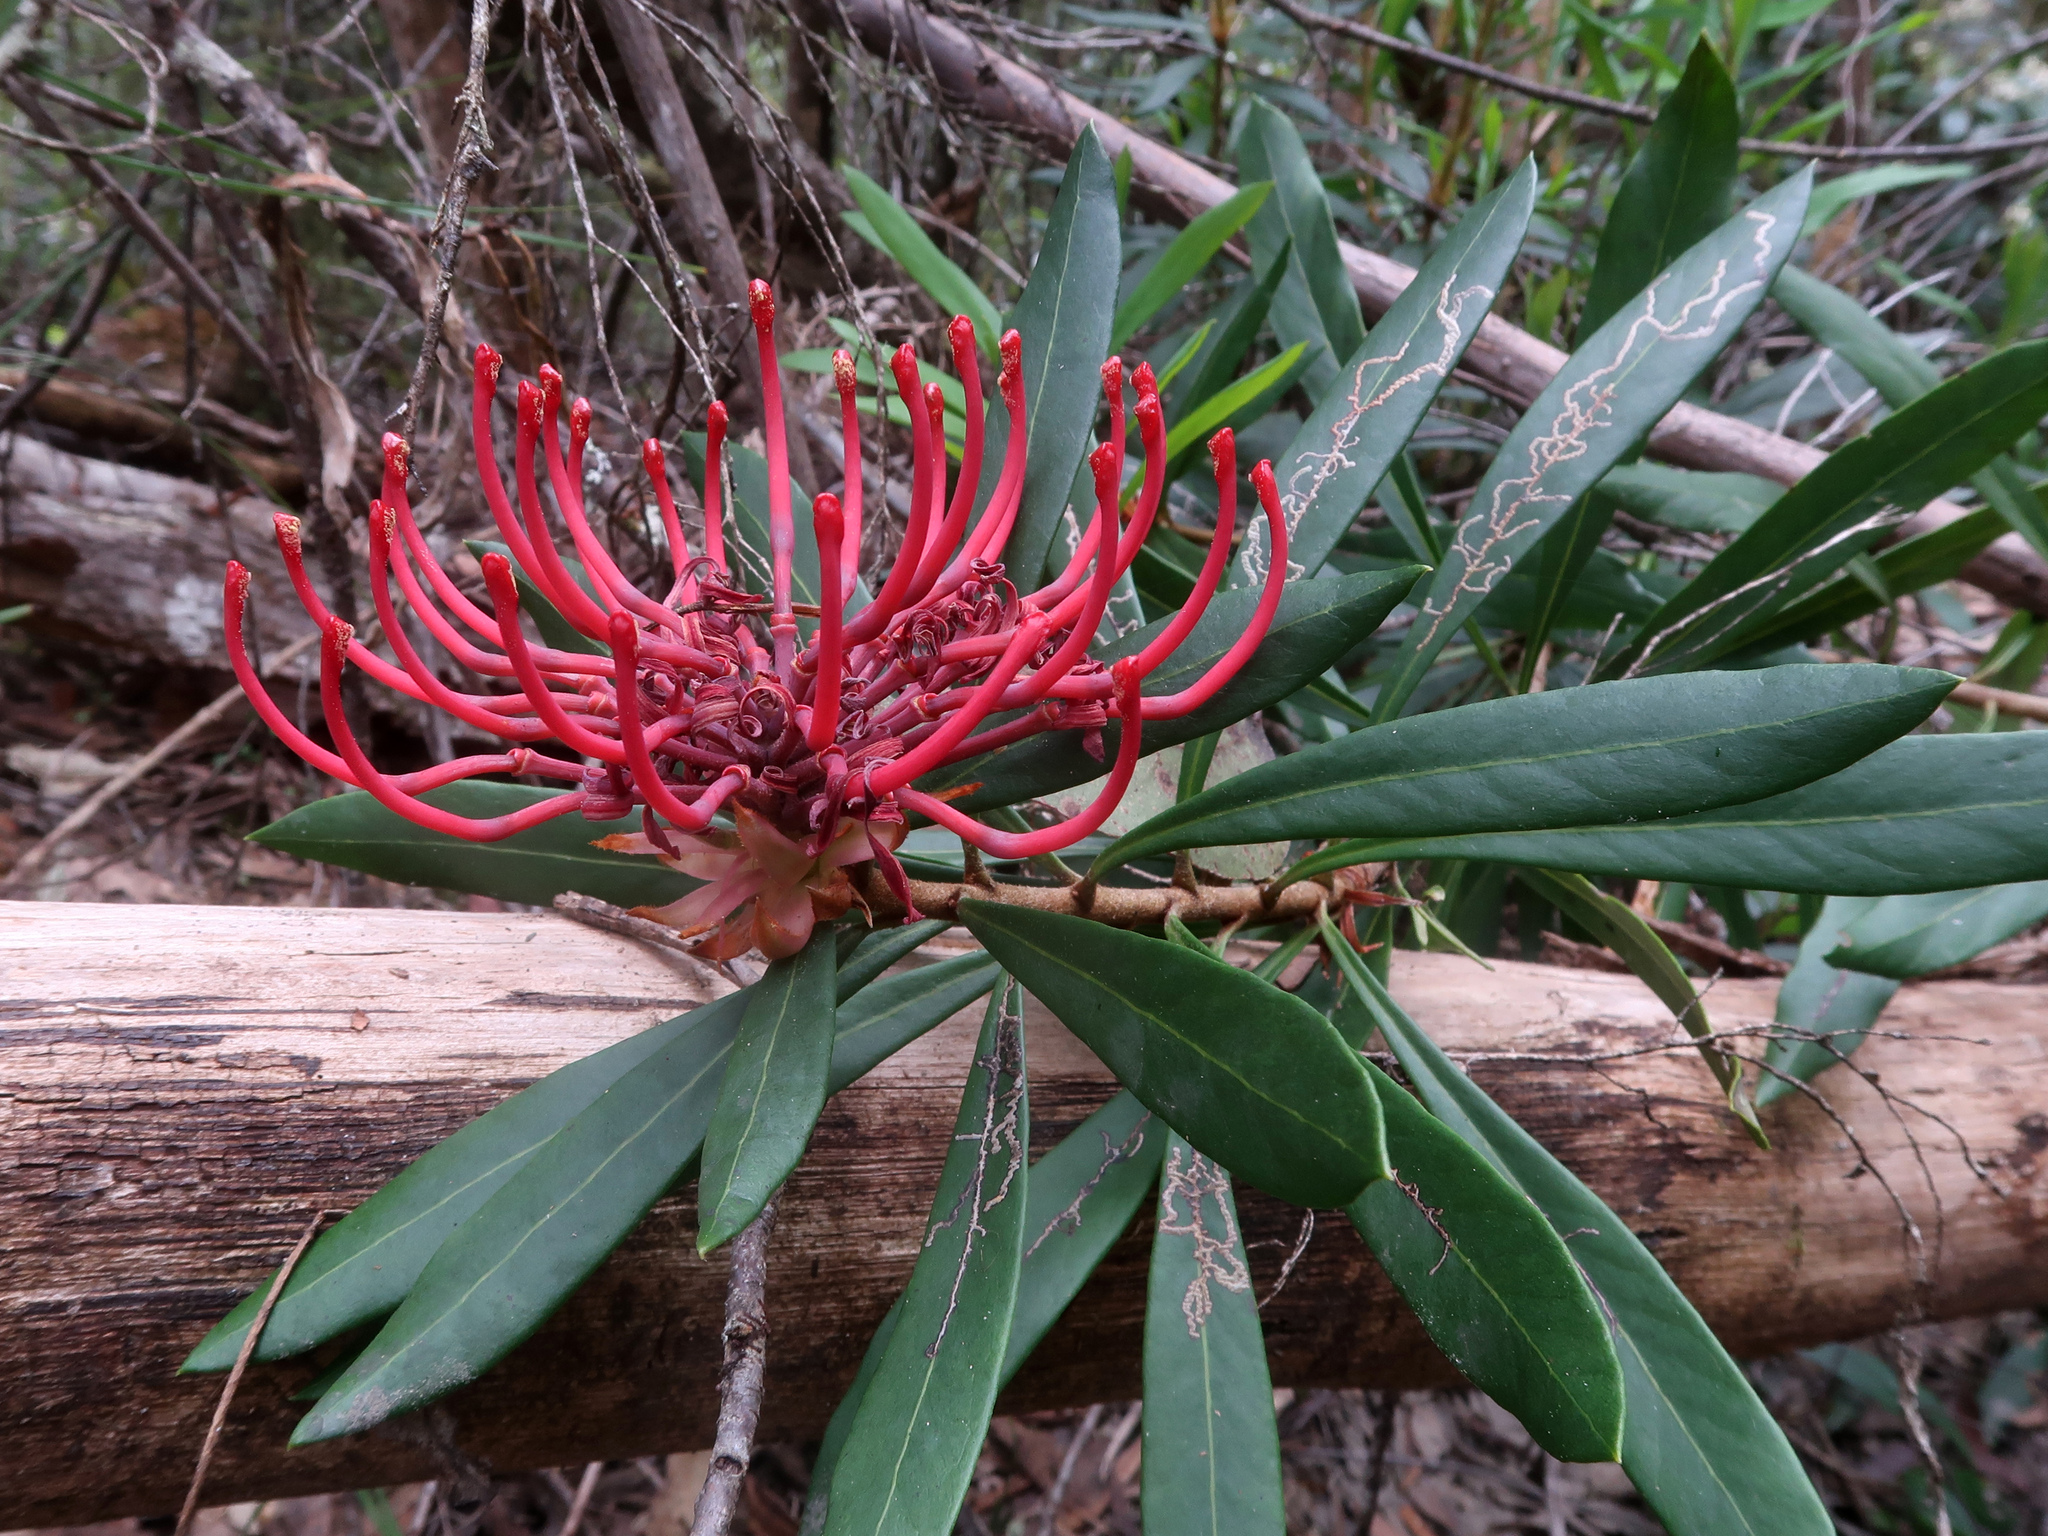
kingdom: Plantae
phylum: Tracheophyta
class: Magnoliopsida
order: Proteales
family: Proteaceae
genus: Telopea
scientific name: Telopea truncata
